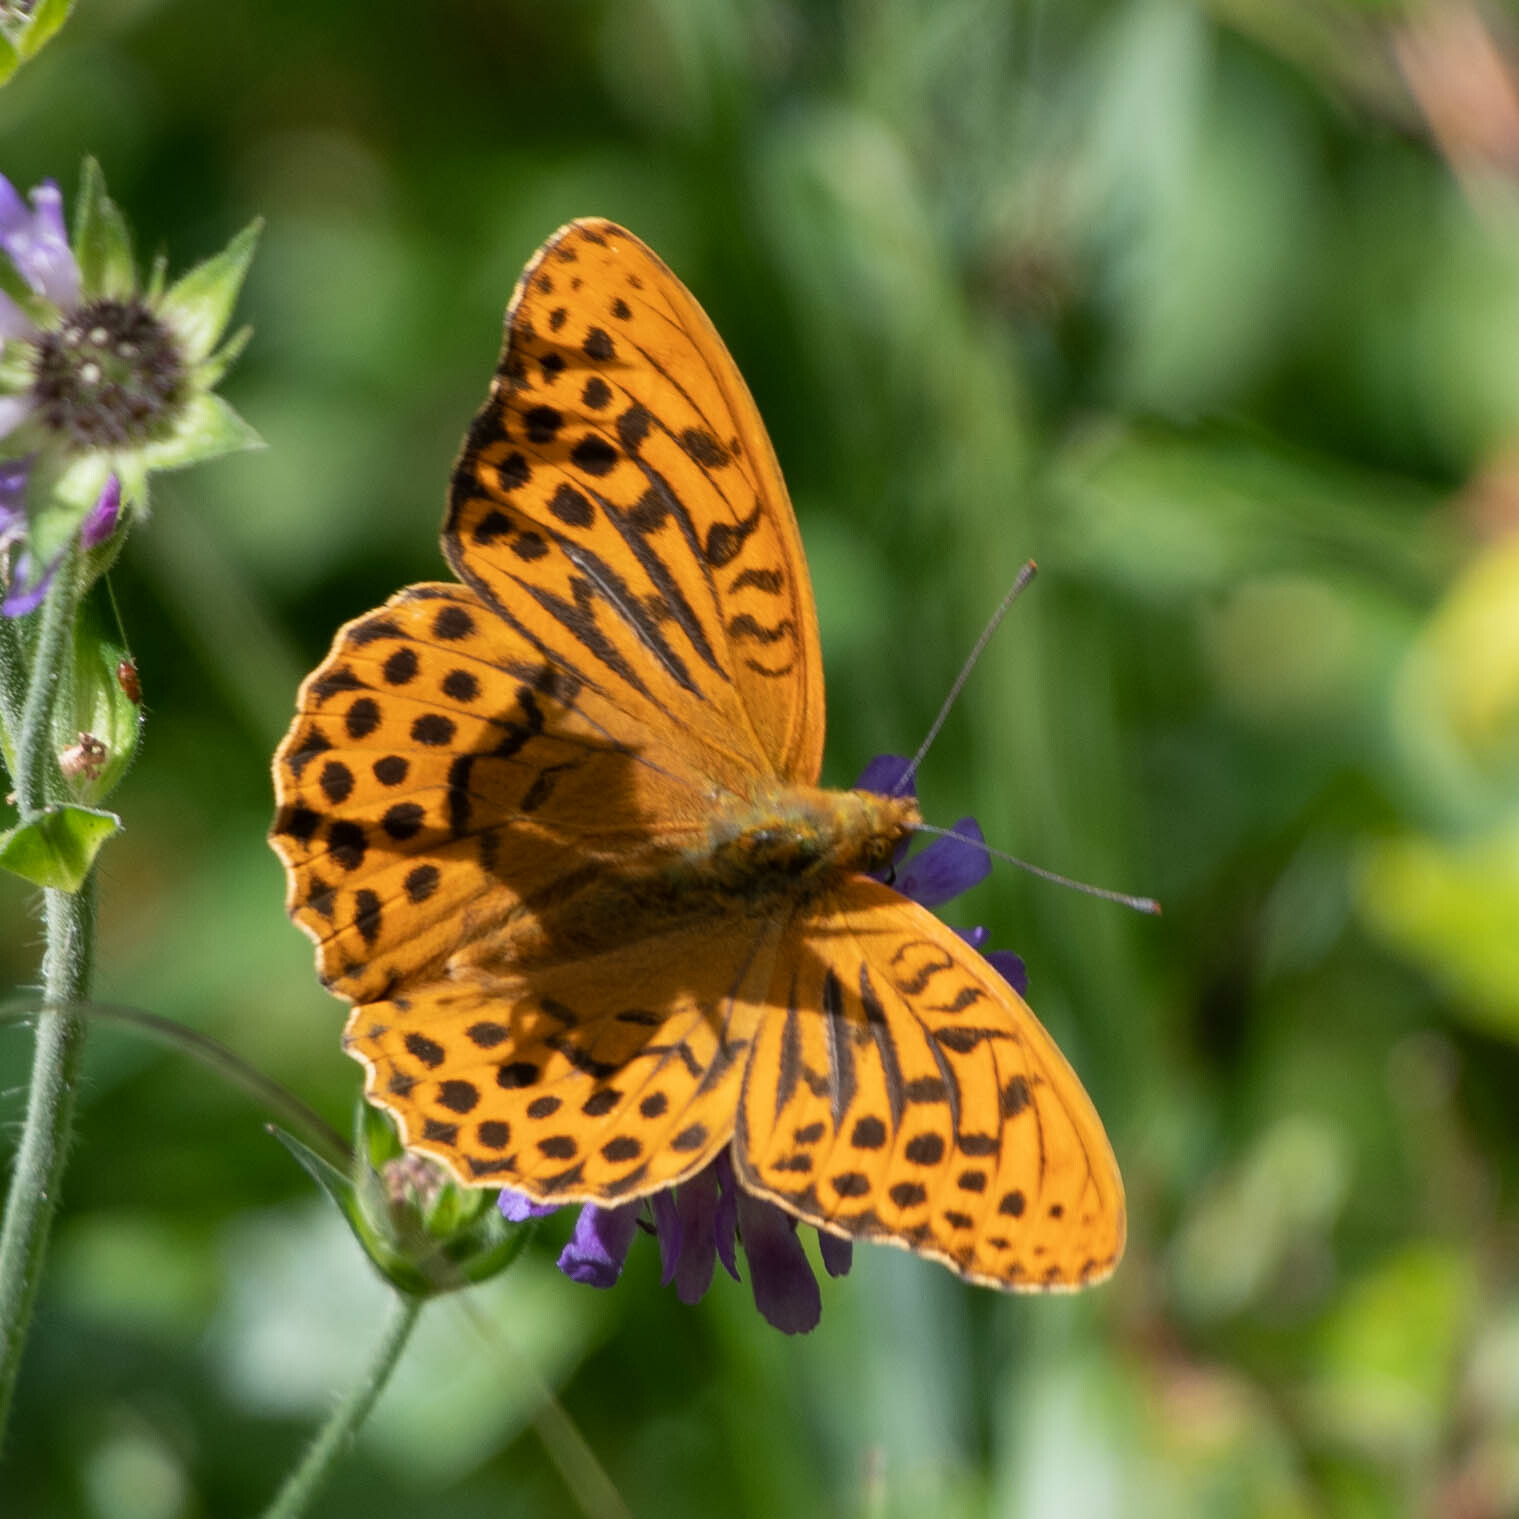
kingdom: Animalia
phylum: Arthropoda
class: Insecta
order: Lepidoptera
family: Nymphalidae
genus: Argynnis
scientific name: Argynnis paphia
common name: Silver-washed fritillary
